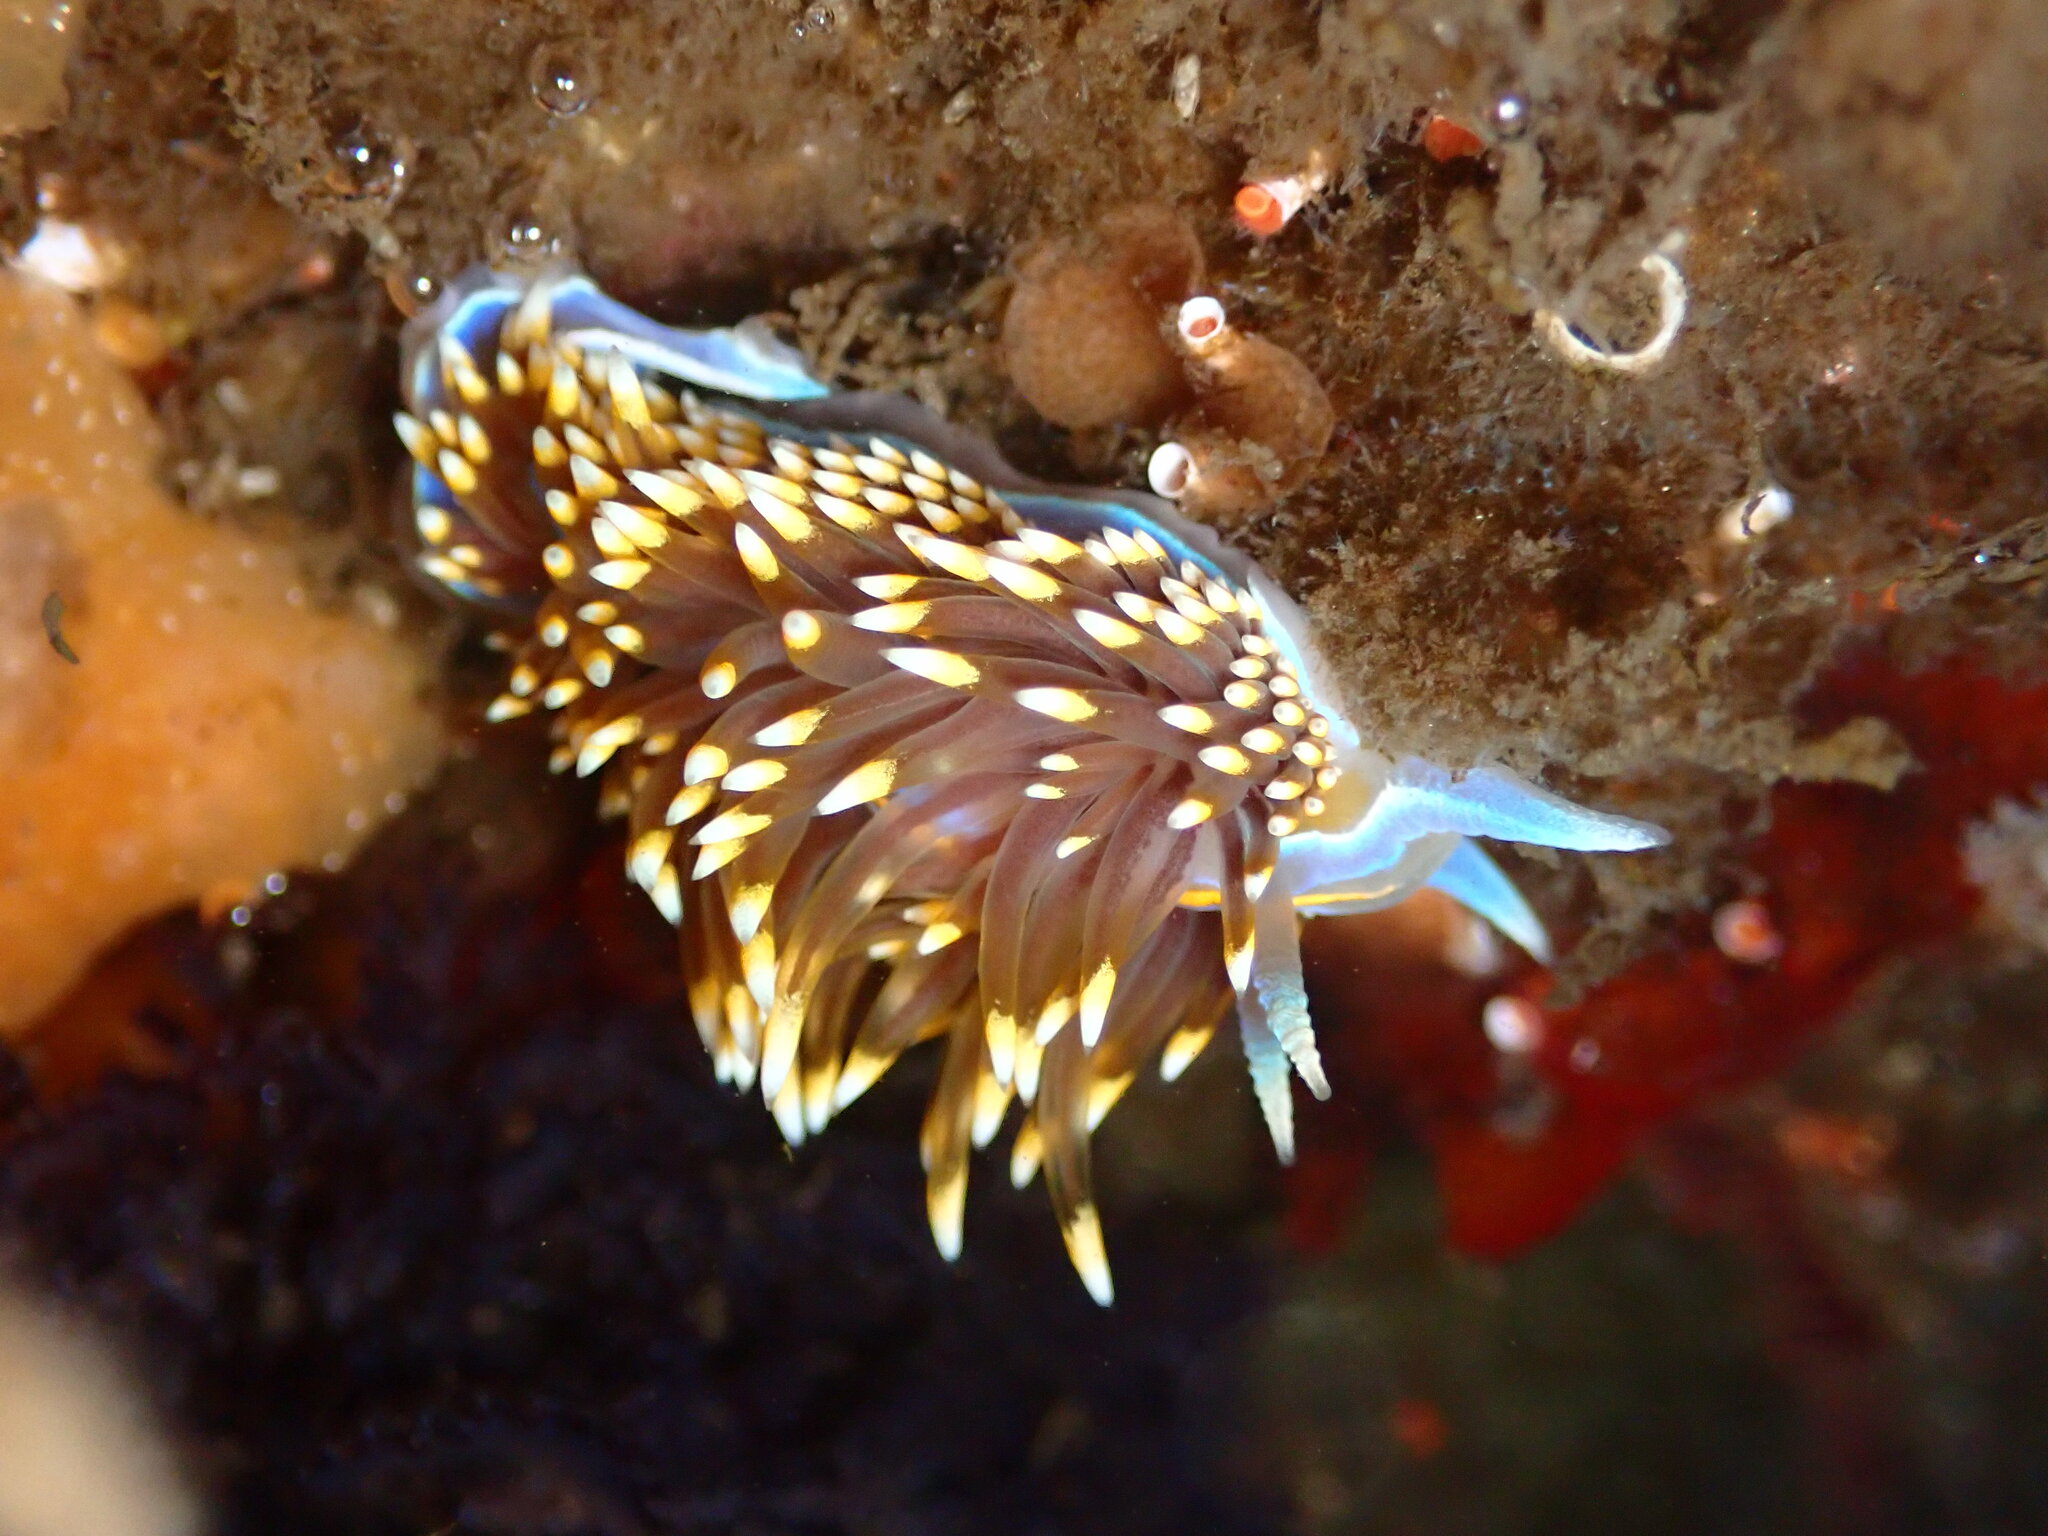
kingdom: Animalia
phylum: Mollusca
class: Gastropoda
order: Nudibranchia
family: Myrrhinidae
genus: Hermissenda
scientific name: Hermissenda opalescens
